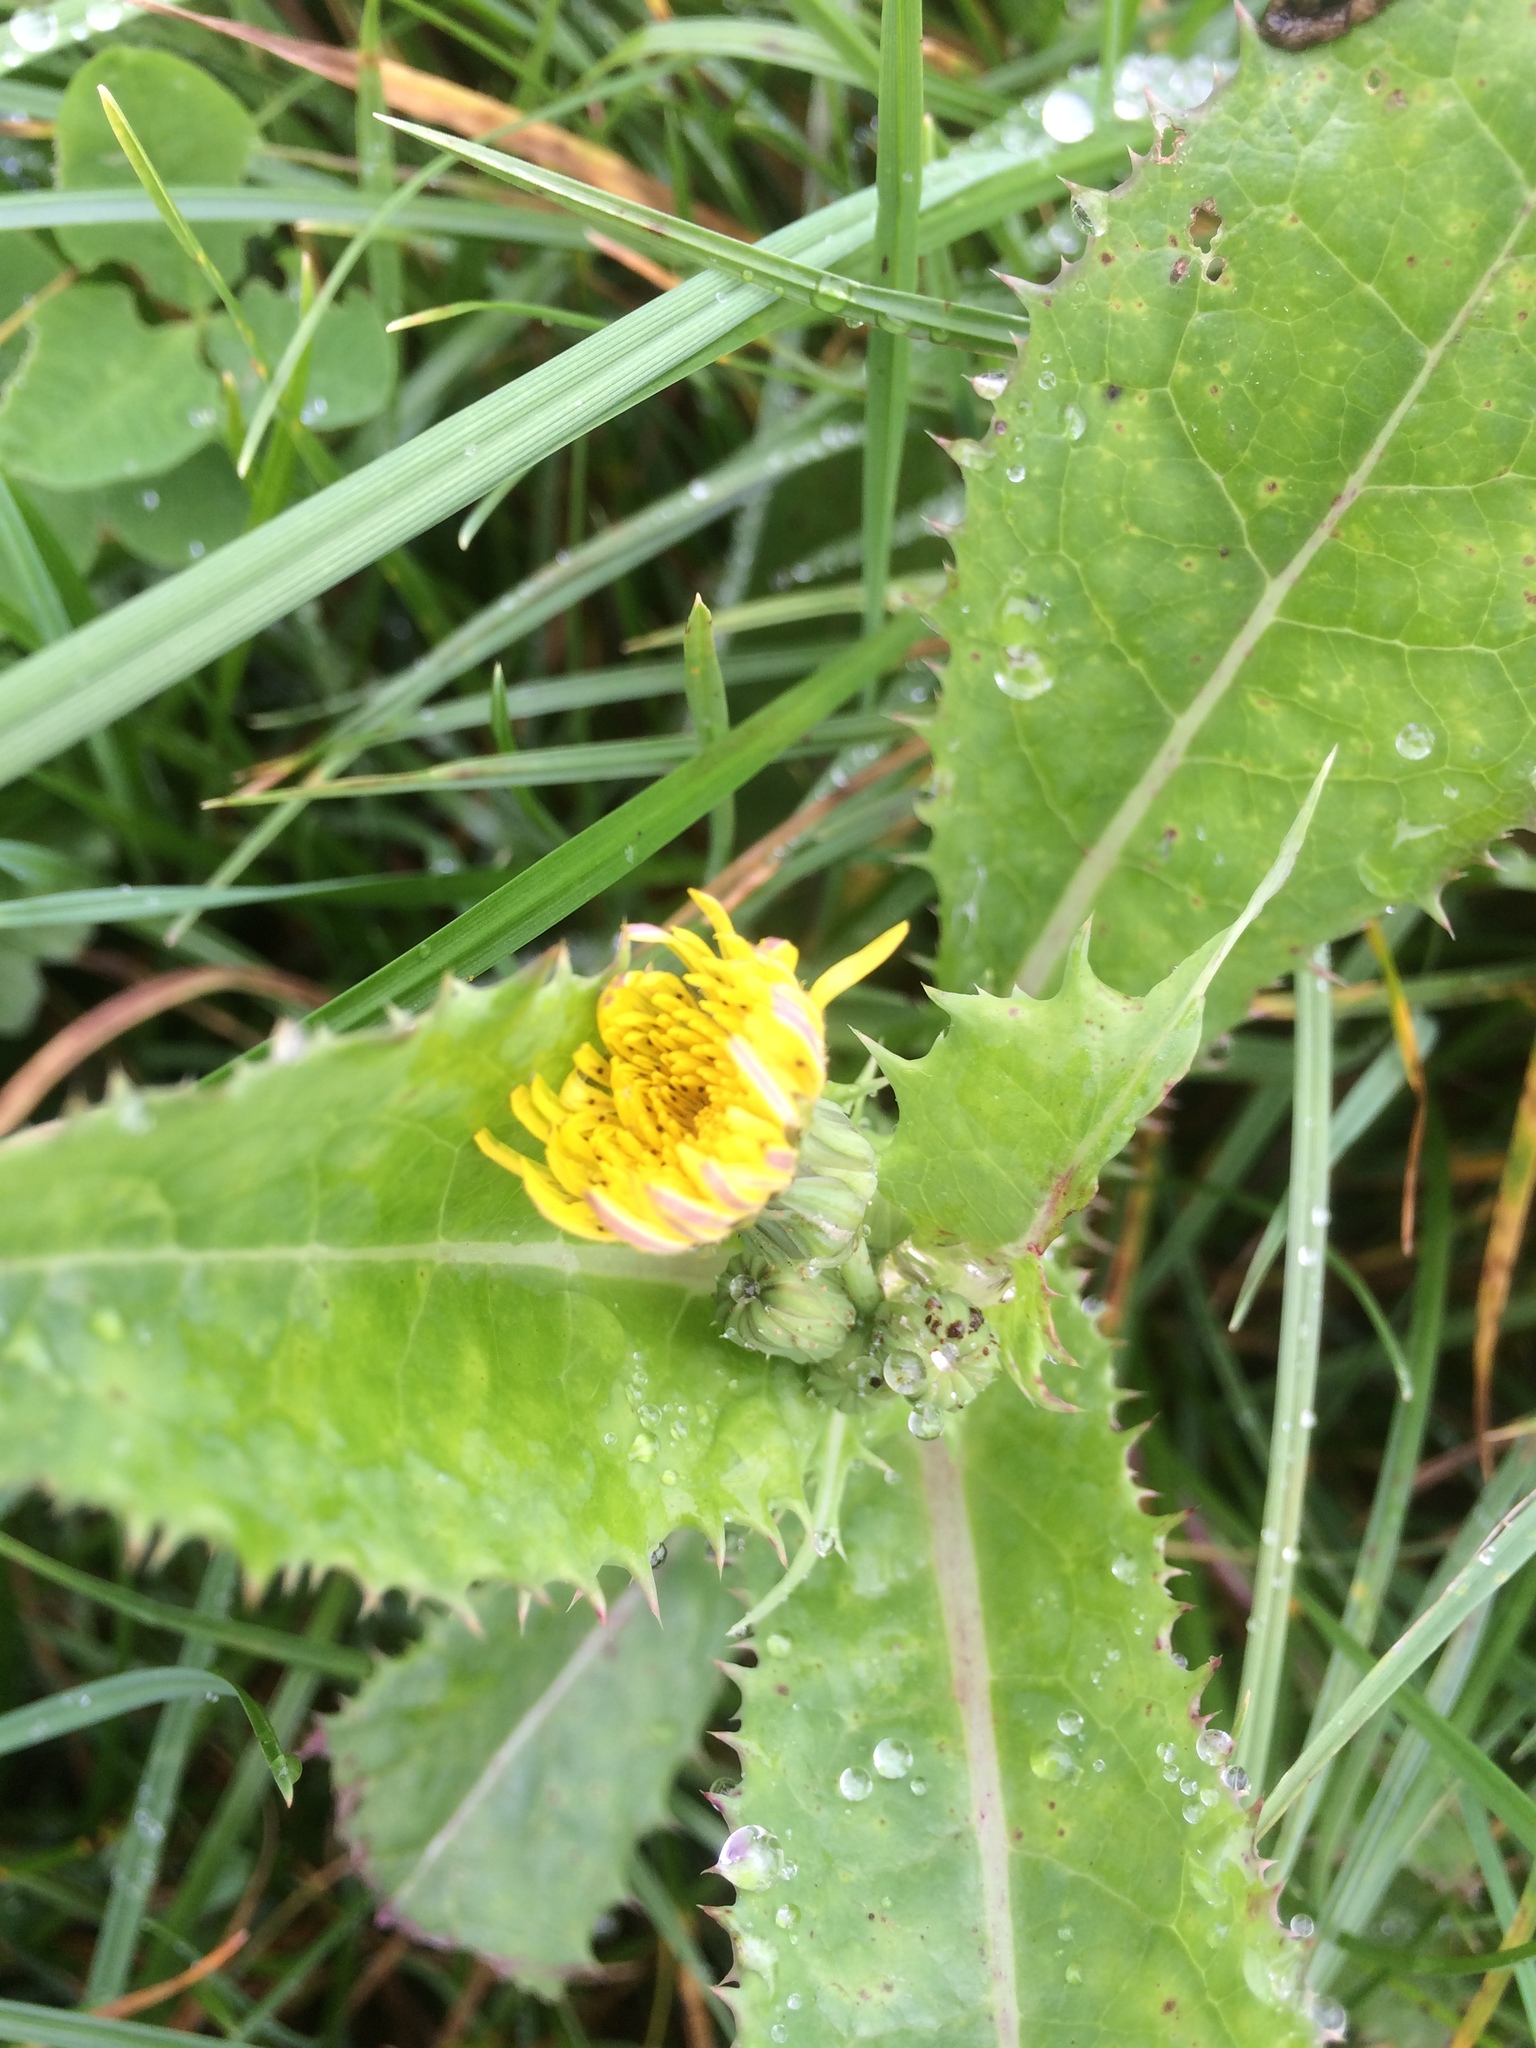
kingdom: Plantae
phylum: Tracheophyta
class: Magnoliopsida
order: Asterales
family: Asteraceae
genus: Sonchus
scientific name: Sonchus asper
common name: Prickly sow-thistle
